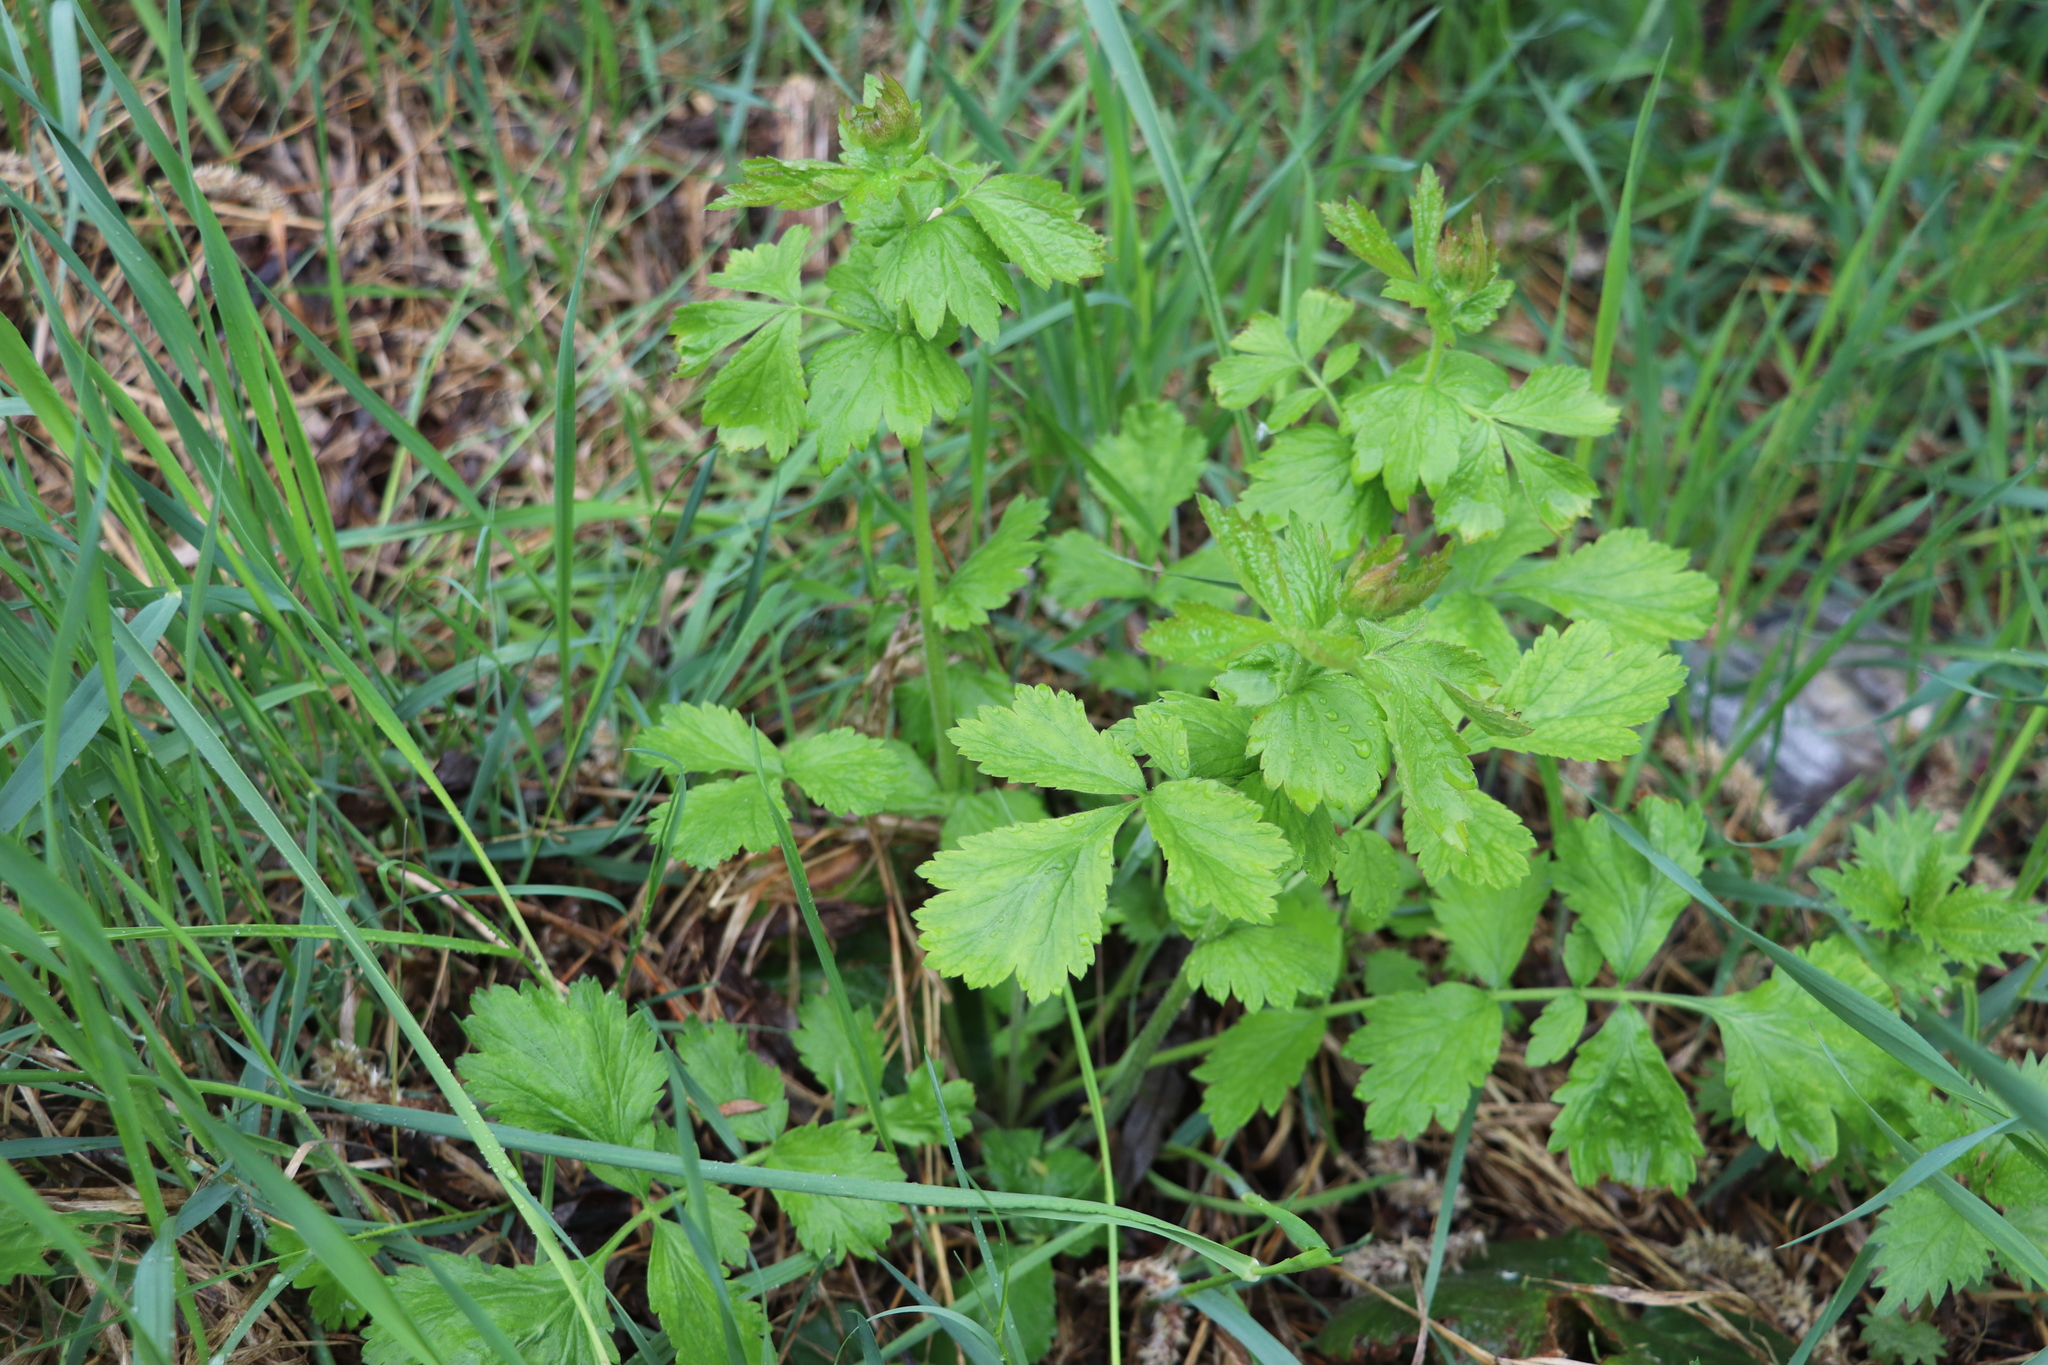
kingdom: Plantae
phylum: Tracheophyta
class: Magnoliopsida
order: Rosales
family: Rosaceae
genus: Geum
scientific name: Geum aleppicum
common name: Yellow avens
